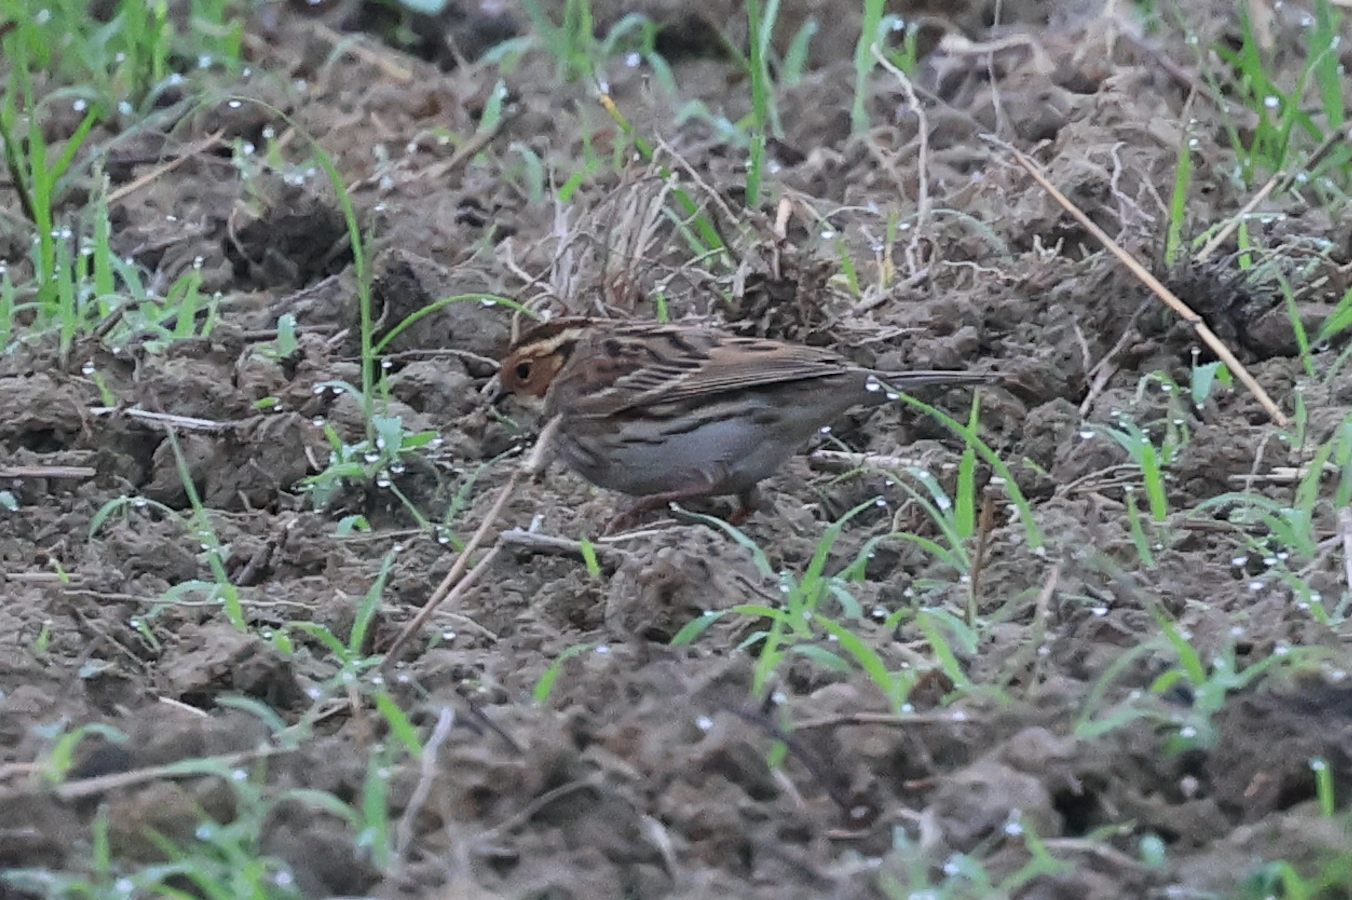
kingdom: Animalia
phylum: Chordata
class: Aves
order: Passeriformes
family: Emberizidae
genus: Emberiza
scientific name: Emberiza pusilla
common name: Little bunting
